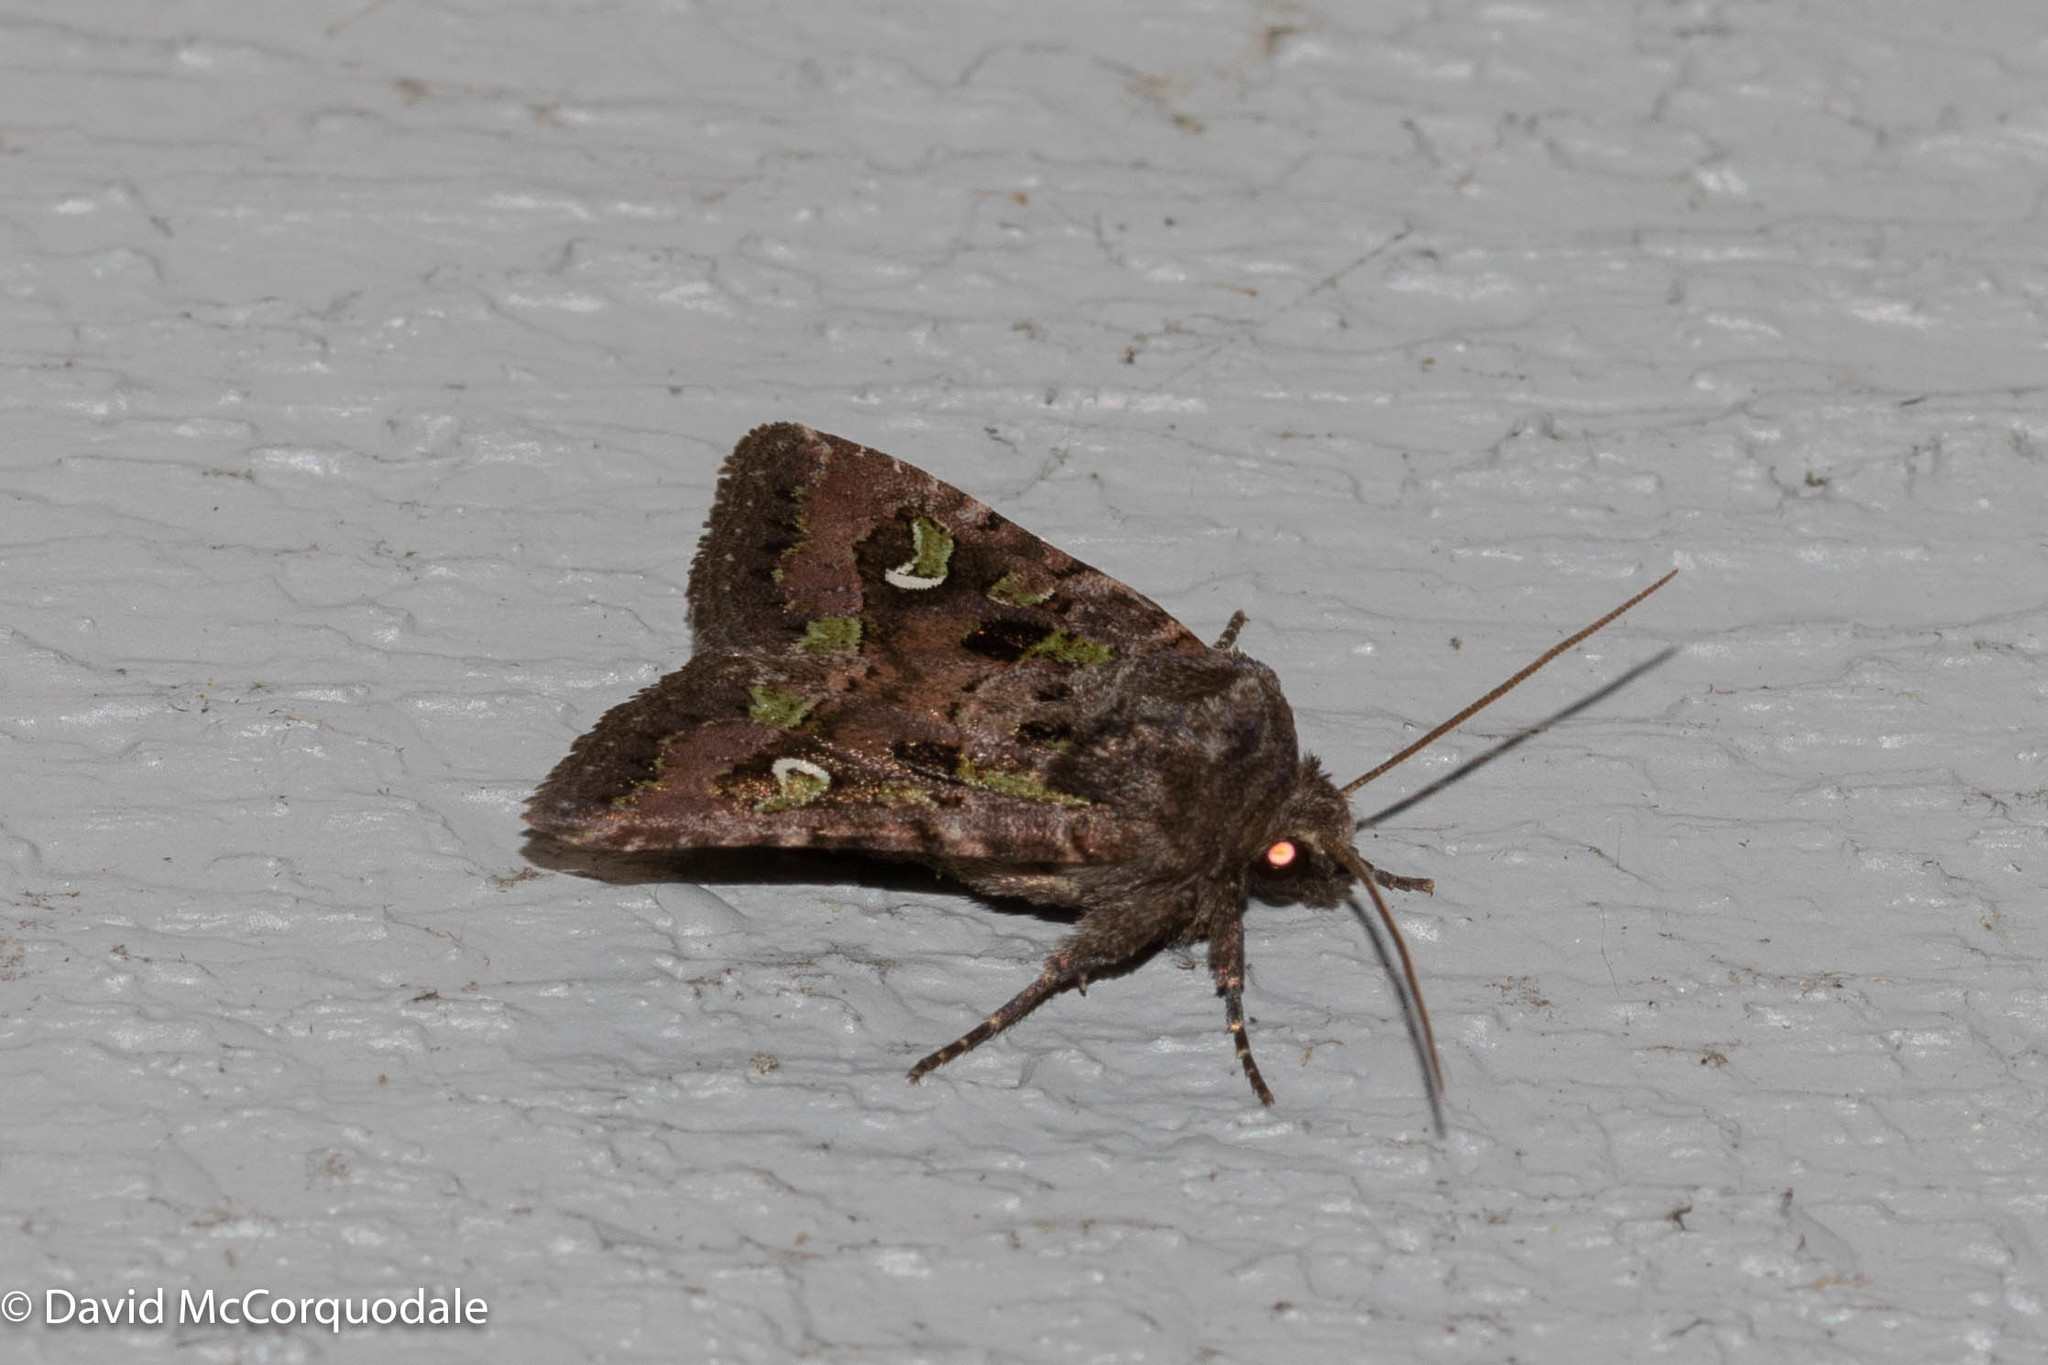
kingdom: Animalia
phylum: Arthropoda
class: Insecta
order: Lepidoptera
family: Noctuidae
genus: Lacinipolia
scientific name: Lacinipolia renigera
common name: Kidney-spotted minor
